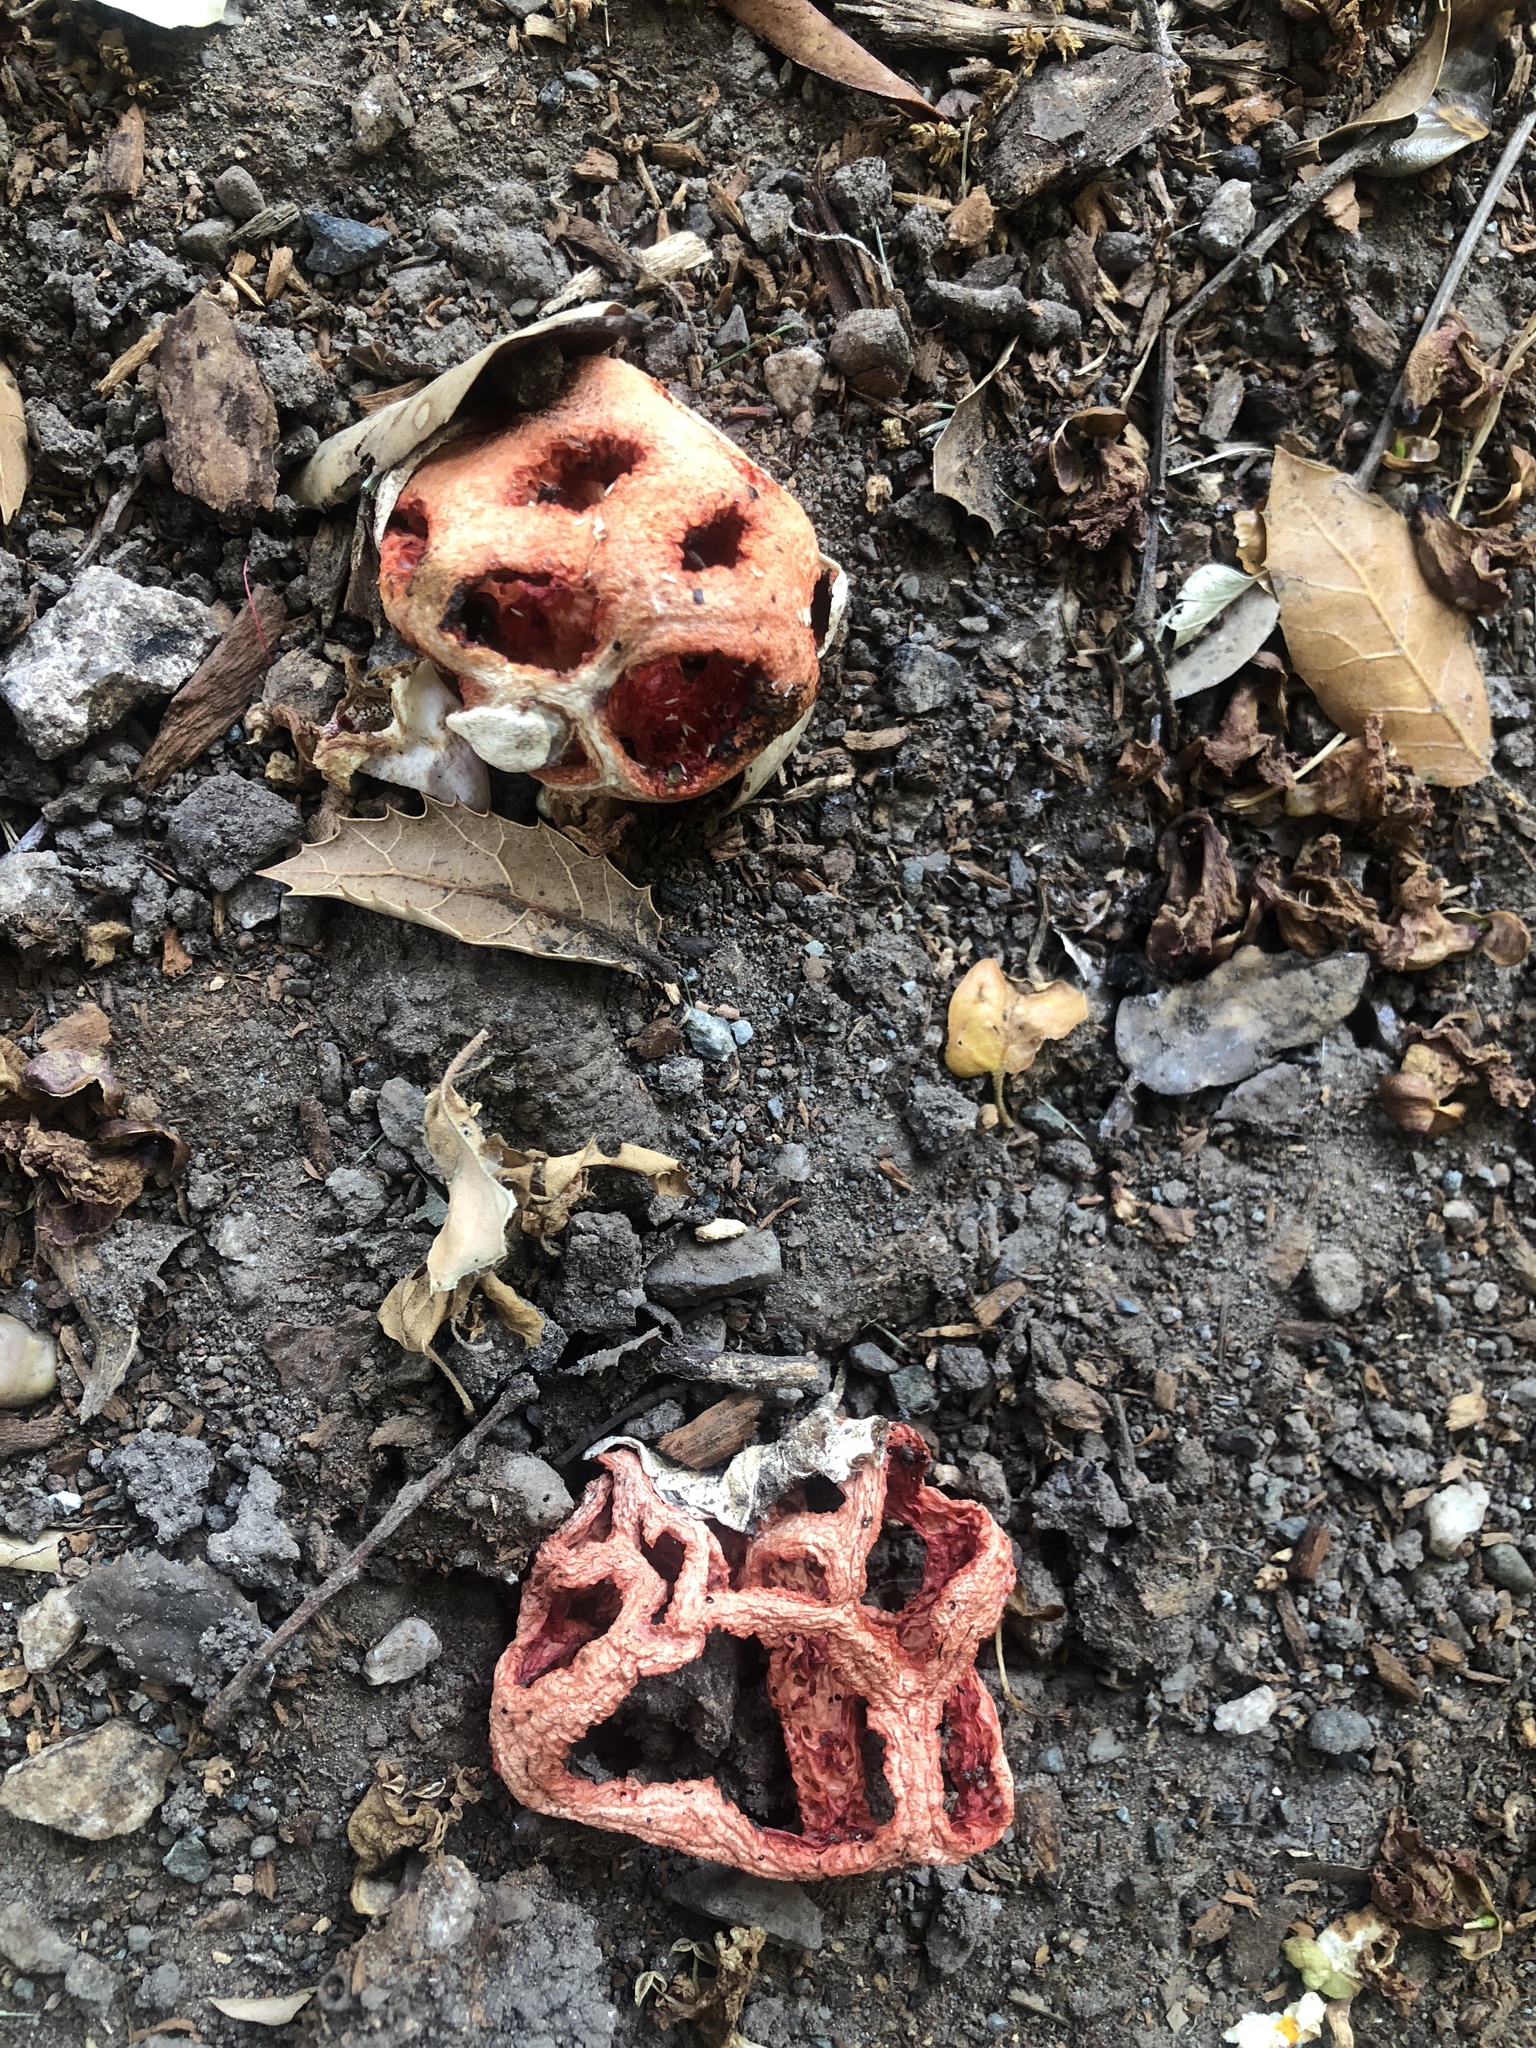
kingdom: Fungi
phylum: Basidiomycota
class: Agaricomycetes
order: Phallales
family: Phallaceae
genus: Clathrus
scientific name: Clathrus ruber
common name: Red cage
